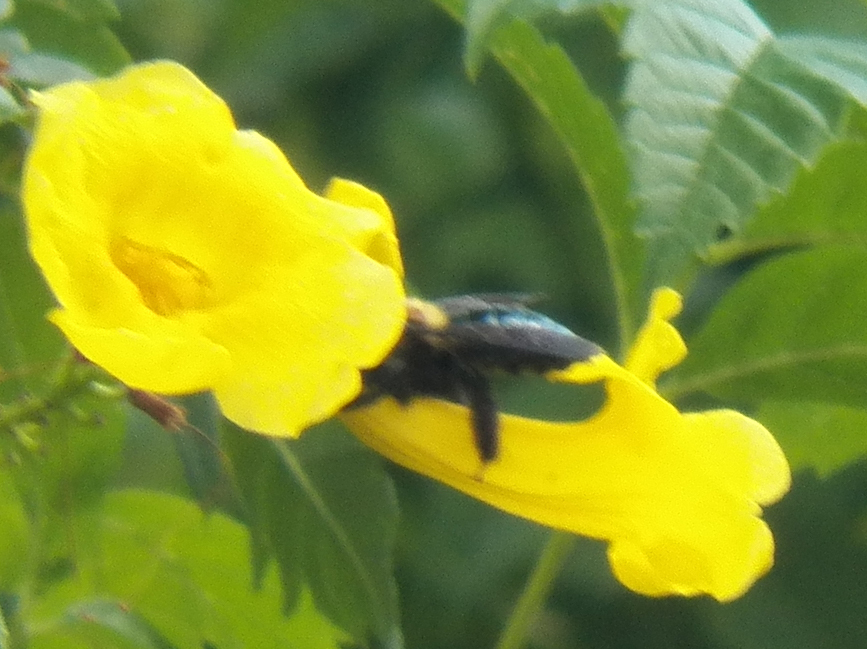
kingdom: Animalia
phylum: Arthropoda
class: Insecta
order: Hymenoptera
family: Apidae
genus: Xylocopa
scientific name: Xylocopa virginica
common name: Carpenter bee
